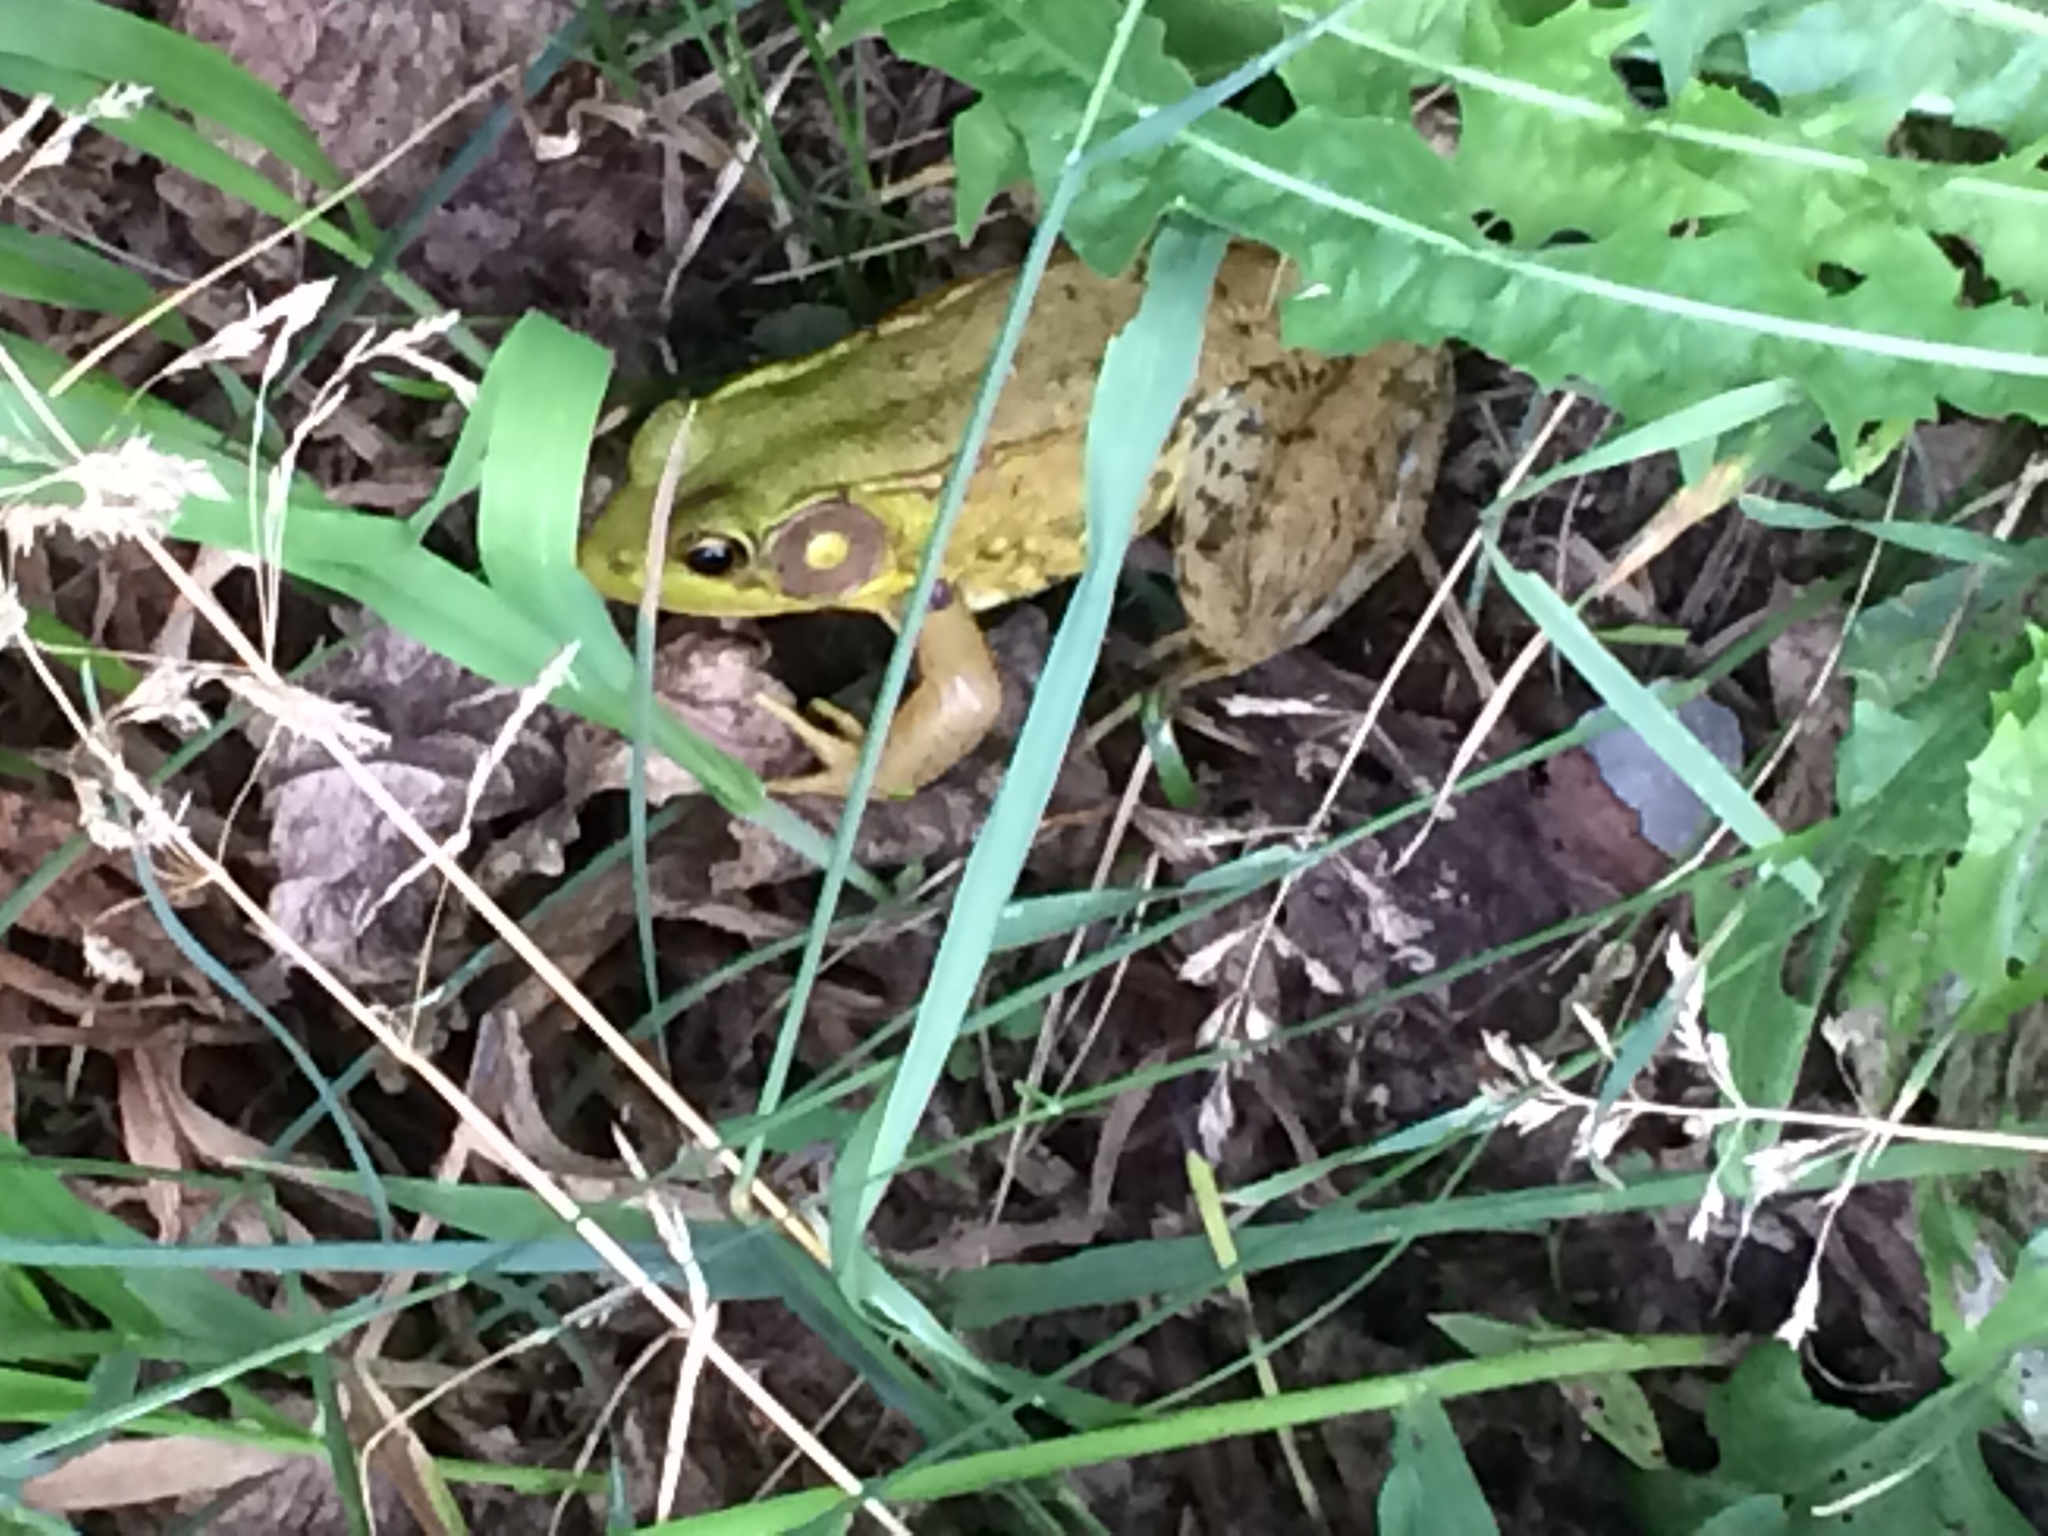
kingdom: Animalia
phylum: Chordata
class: Amphibia
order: Anura
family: Ranidae
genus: Lithobates
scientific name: Lithobates clamitans
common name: Green frog
